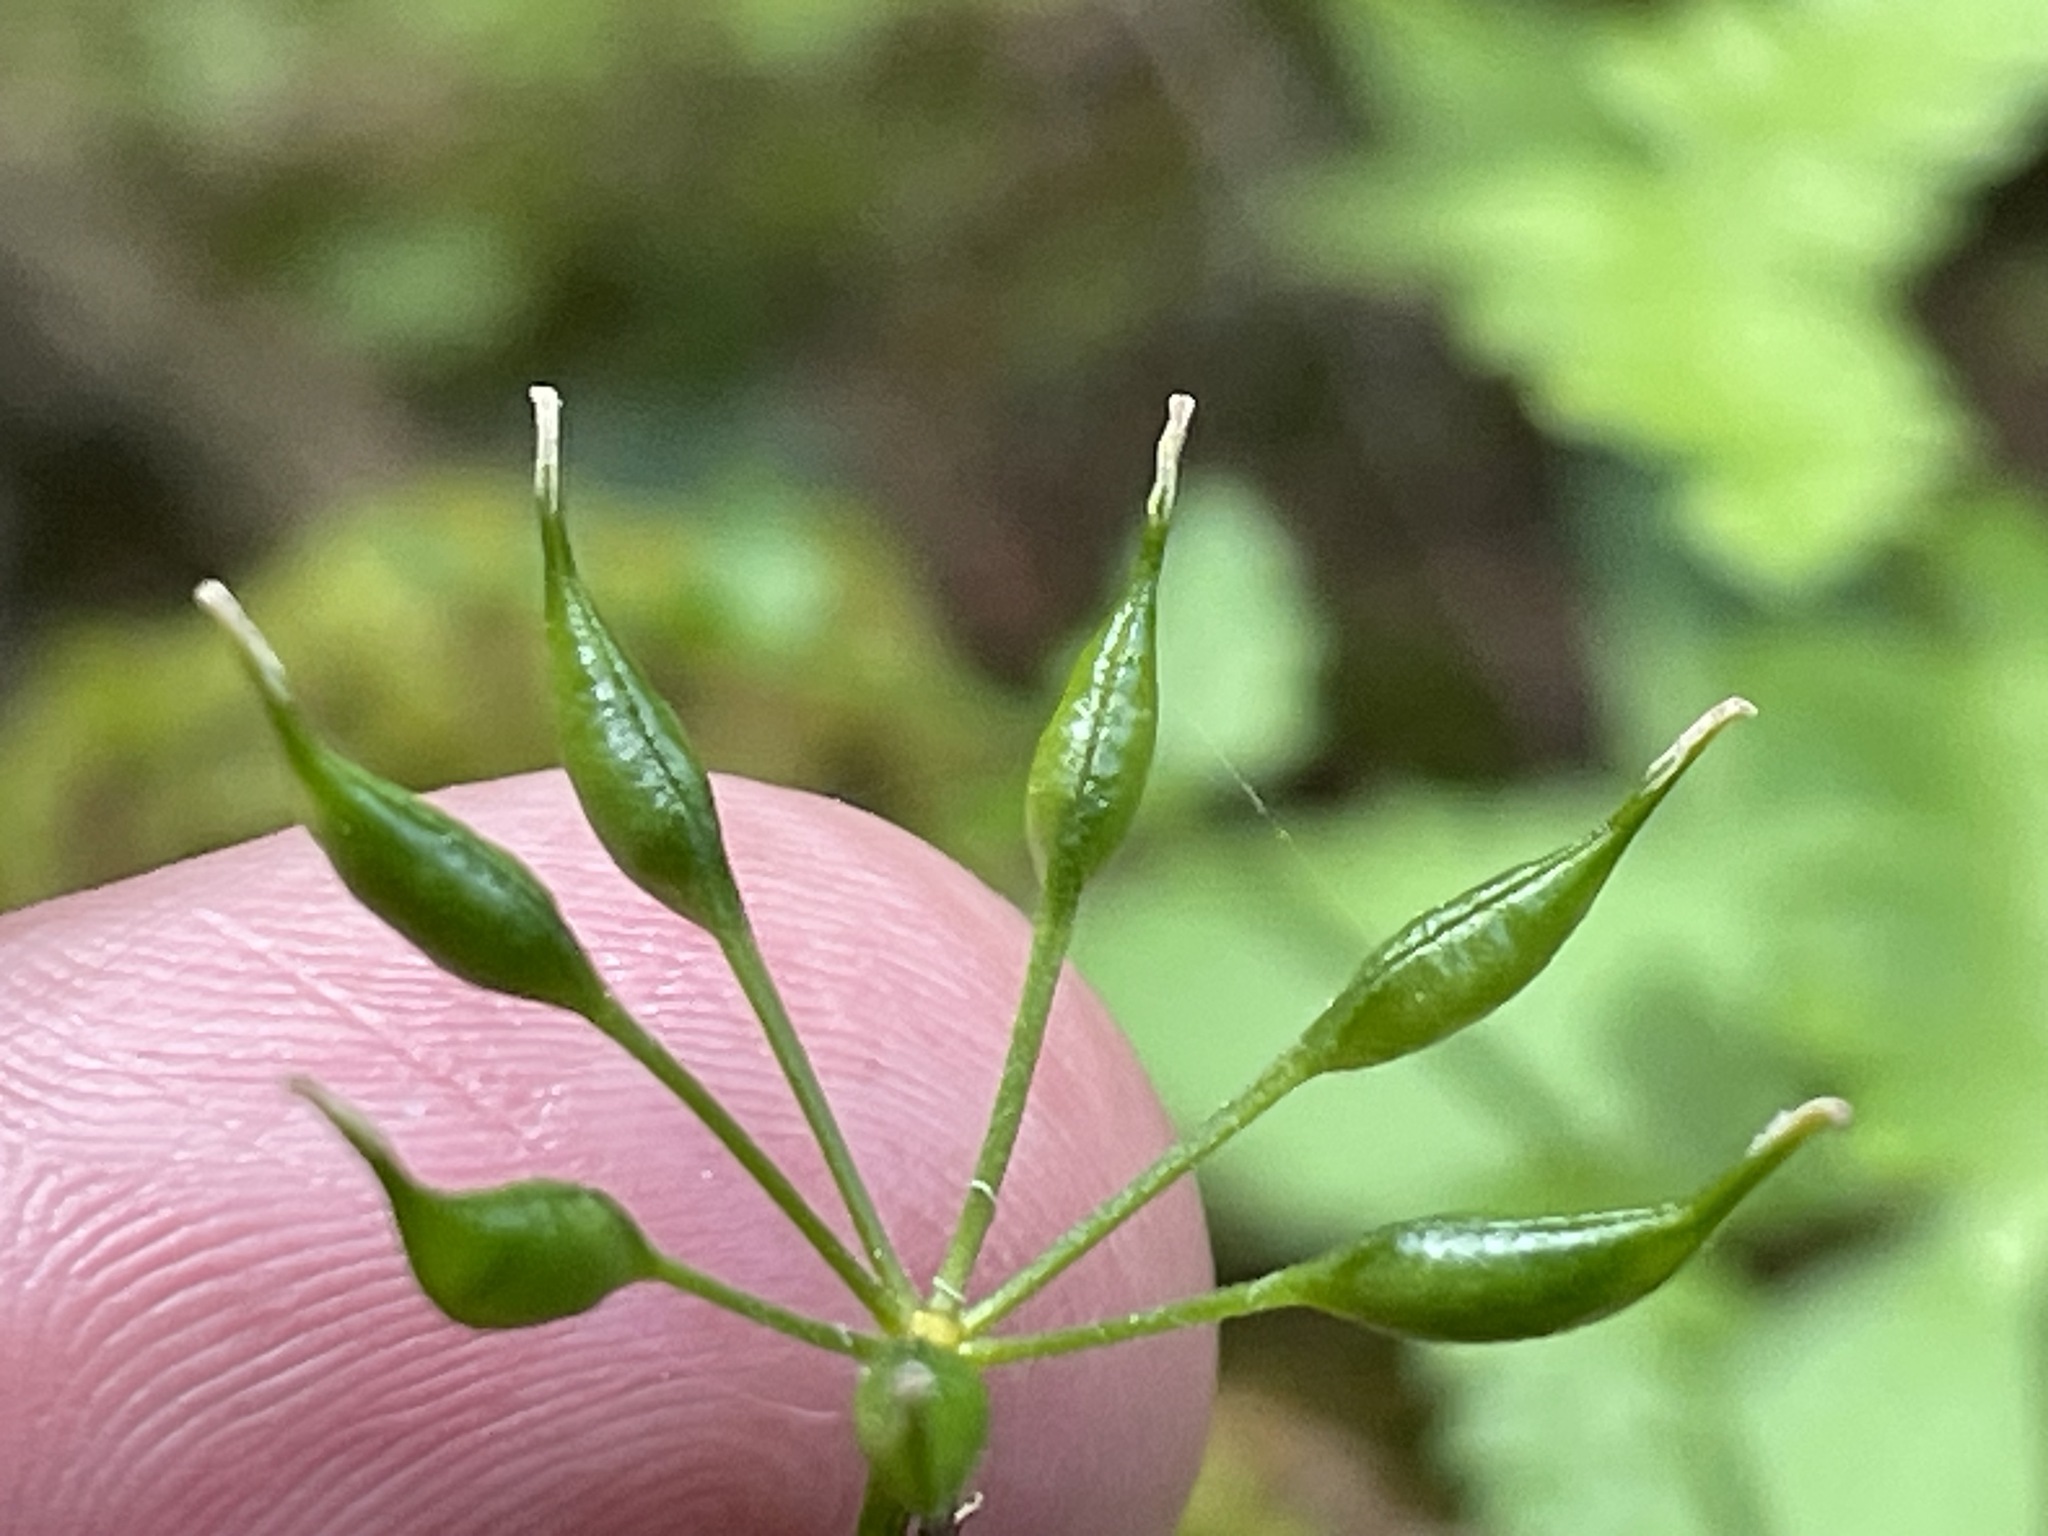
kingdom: Plantae
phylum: Tracheophyta
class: Magnoliopsida
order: Ranunculales
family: Ranunculaceae
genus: Coptis
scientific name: Coptis trifolia
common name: Canker-root
